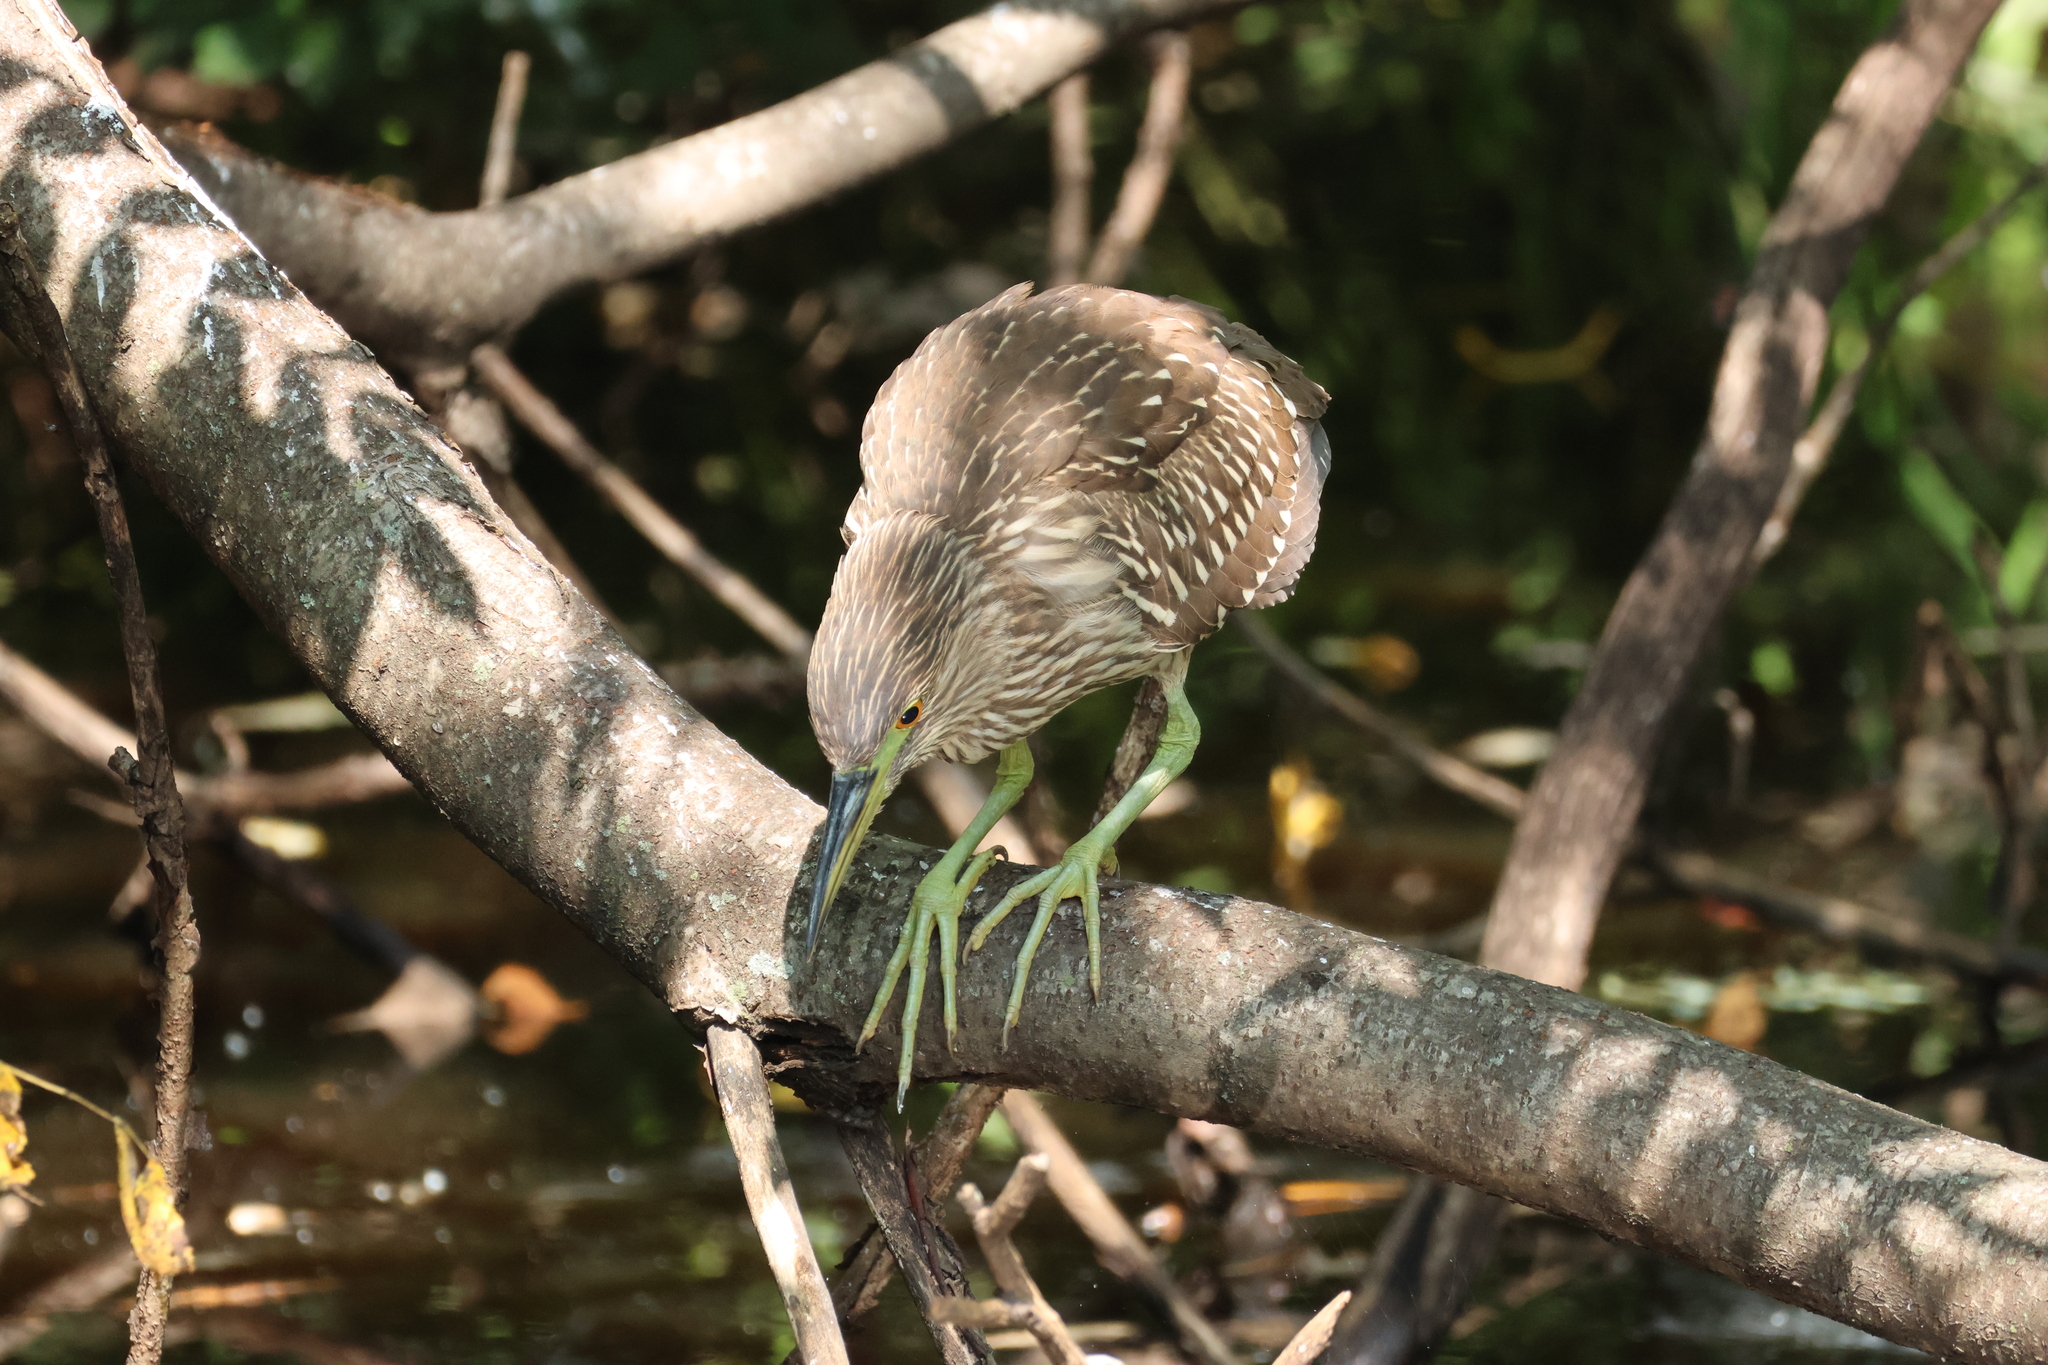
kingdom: Animalia
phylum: Chordata
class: Aves
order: Pelecaniformes
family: Ardeidae
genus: Nycticorax
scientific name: Nycticorax nycticorax
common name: Black-crowned night heron
